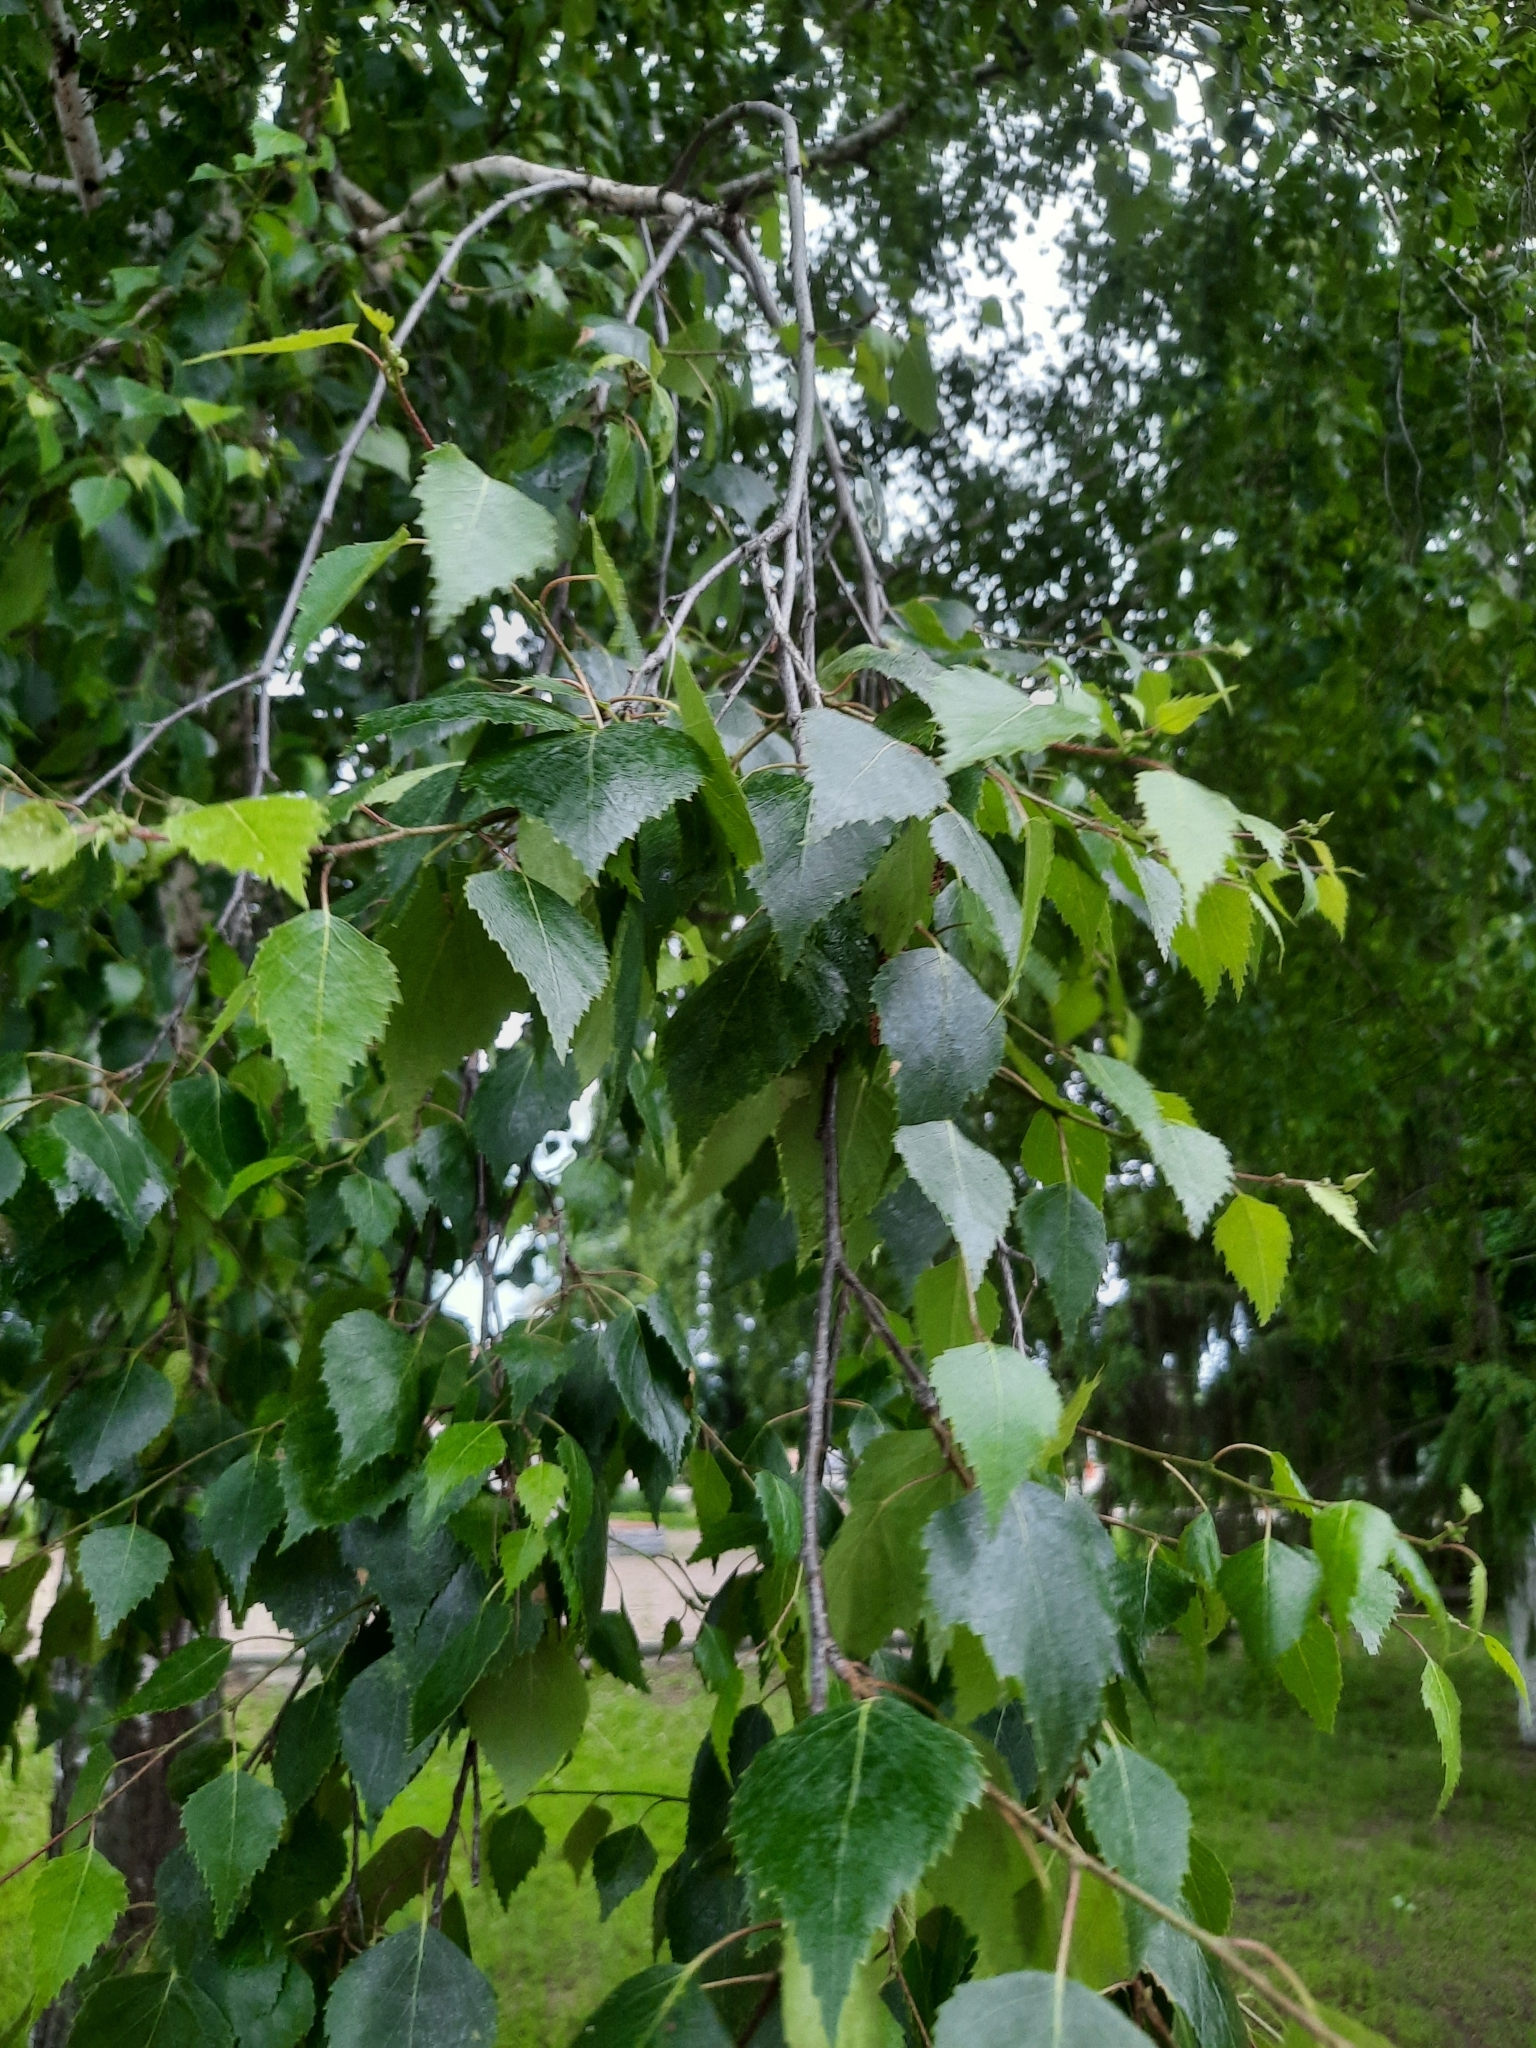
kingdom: Plantae
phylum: Tracheophyta
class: Magnoliopsida
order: Fagales
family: Betulaceae
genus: Betula
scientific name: Betula pendula
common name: Silver birch
